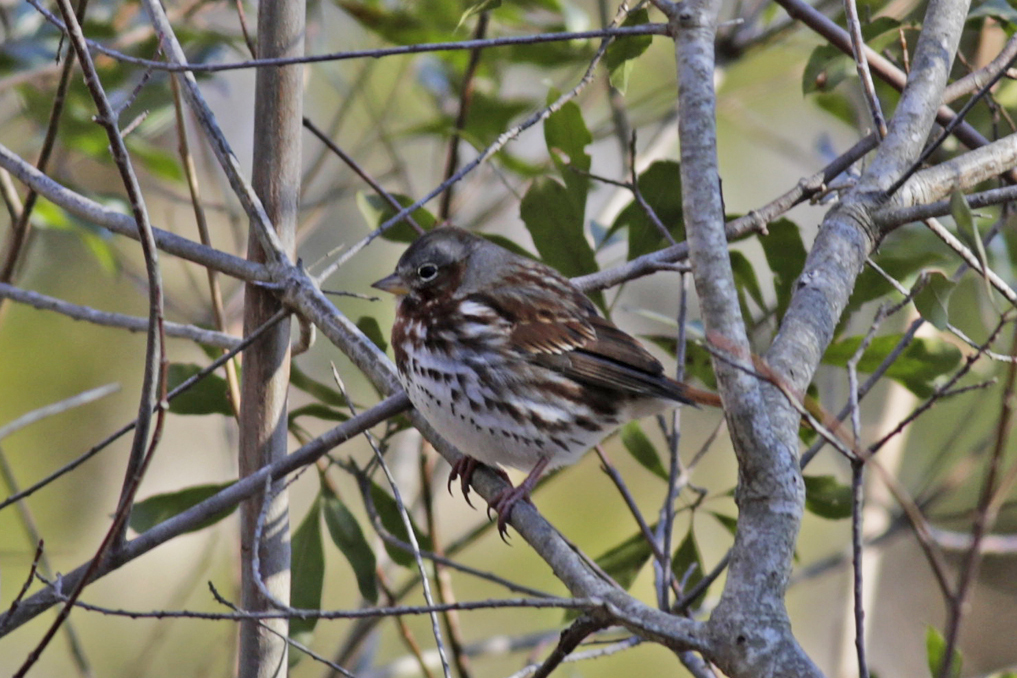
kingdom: Animalia
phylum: Chordata
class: Aves
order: Passeriformes
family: Passerellidae
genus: Passerella
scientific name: Passerella iliaca
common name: Fox sparrow
